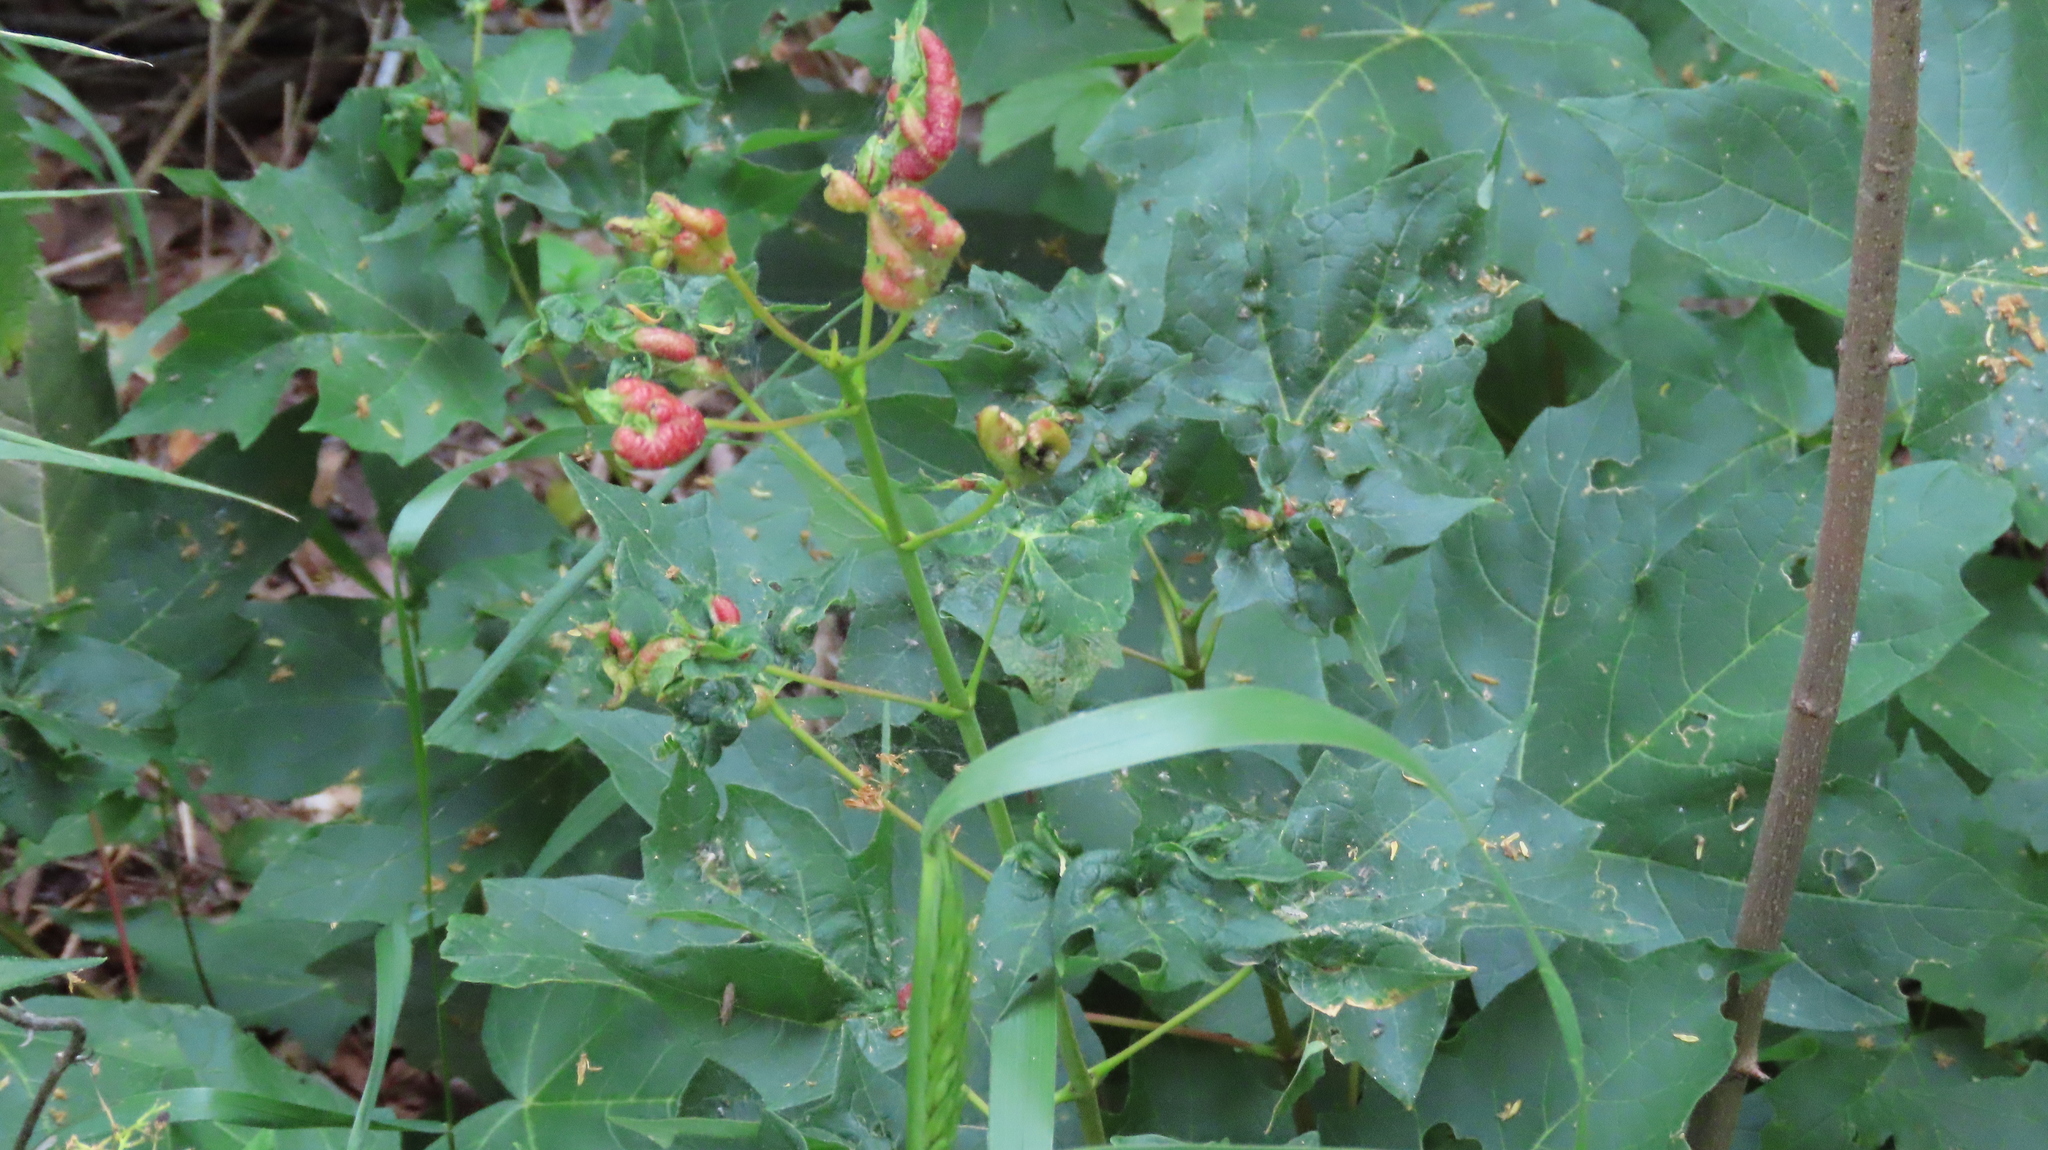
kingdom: Animalia
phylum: Arthropoda
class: Insecta
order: Diptera
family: Cecidomyiidae
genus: Dasineura
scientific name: Dasineura communis
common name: Gouty vein midge
